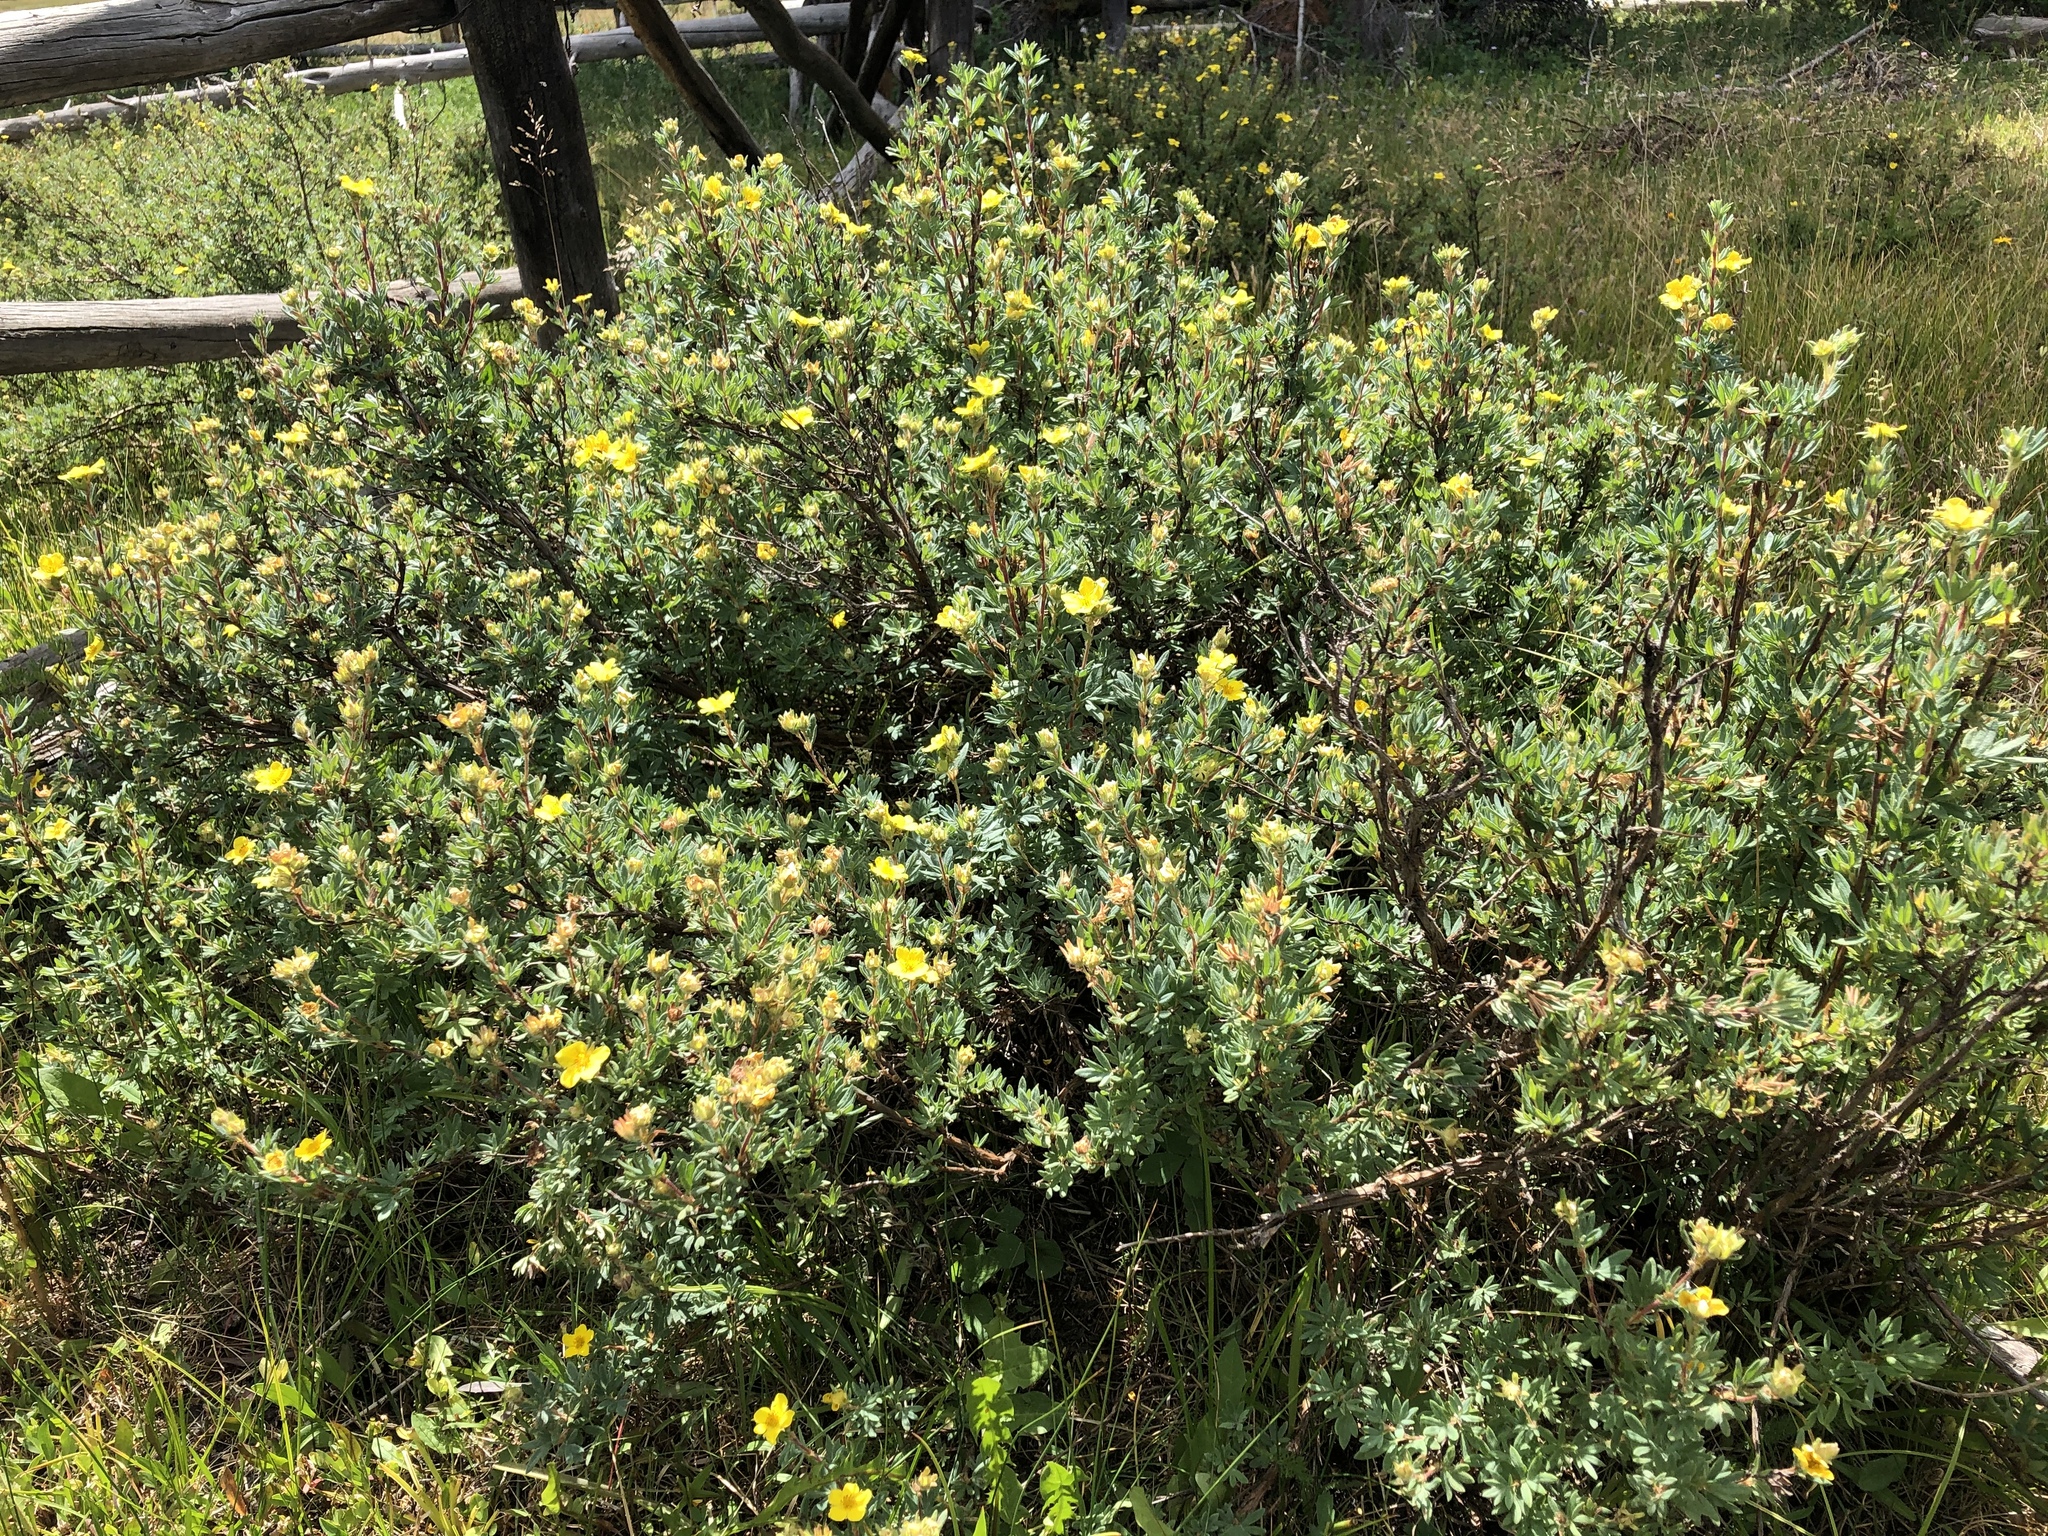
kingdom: Plantae
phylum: Tracheophyta
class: Magnoliopsida
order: Rosales
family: Rosaceae
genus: Dasiphora
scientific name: Dasiphora fruticosa
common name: Shrubby cinquefoil
